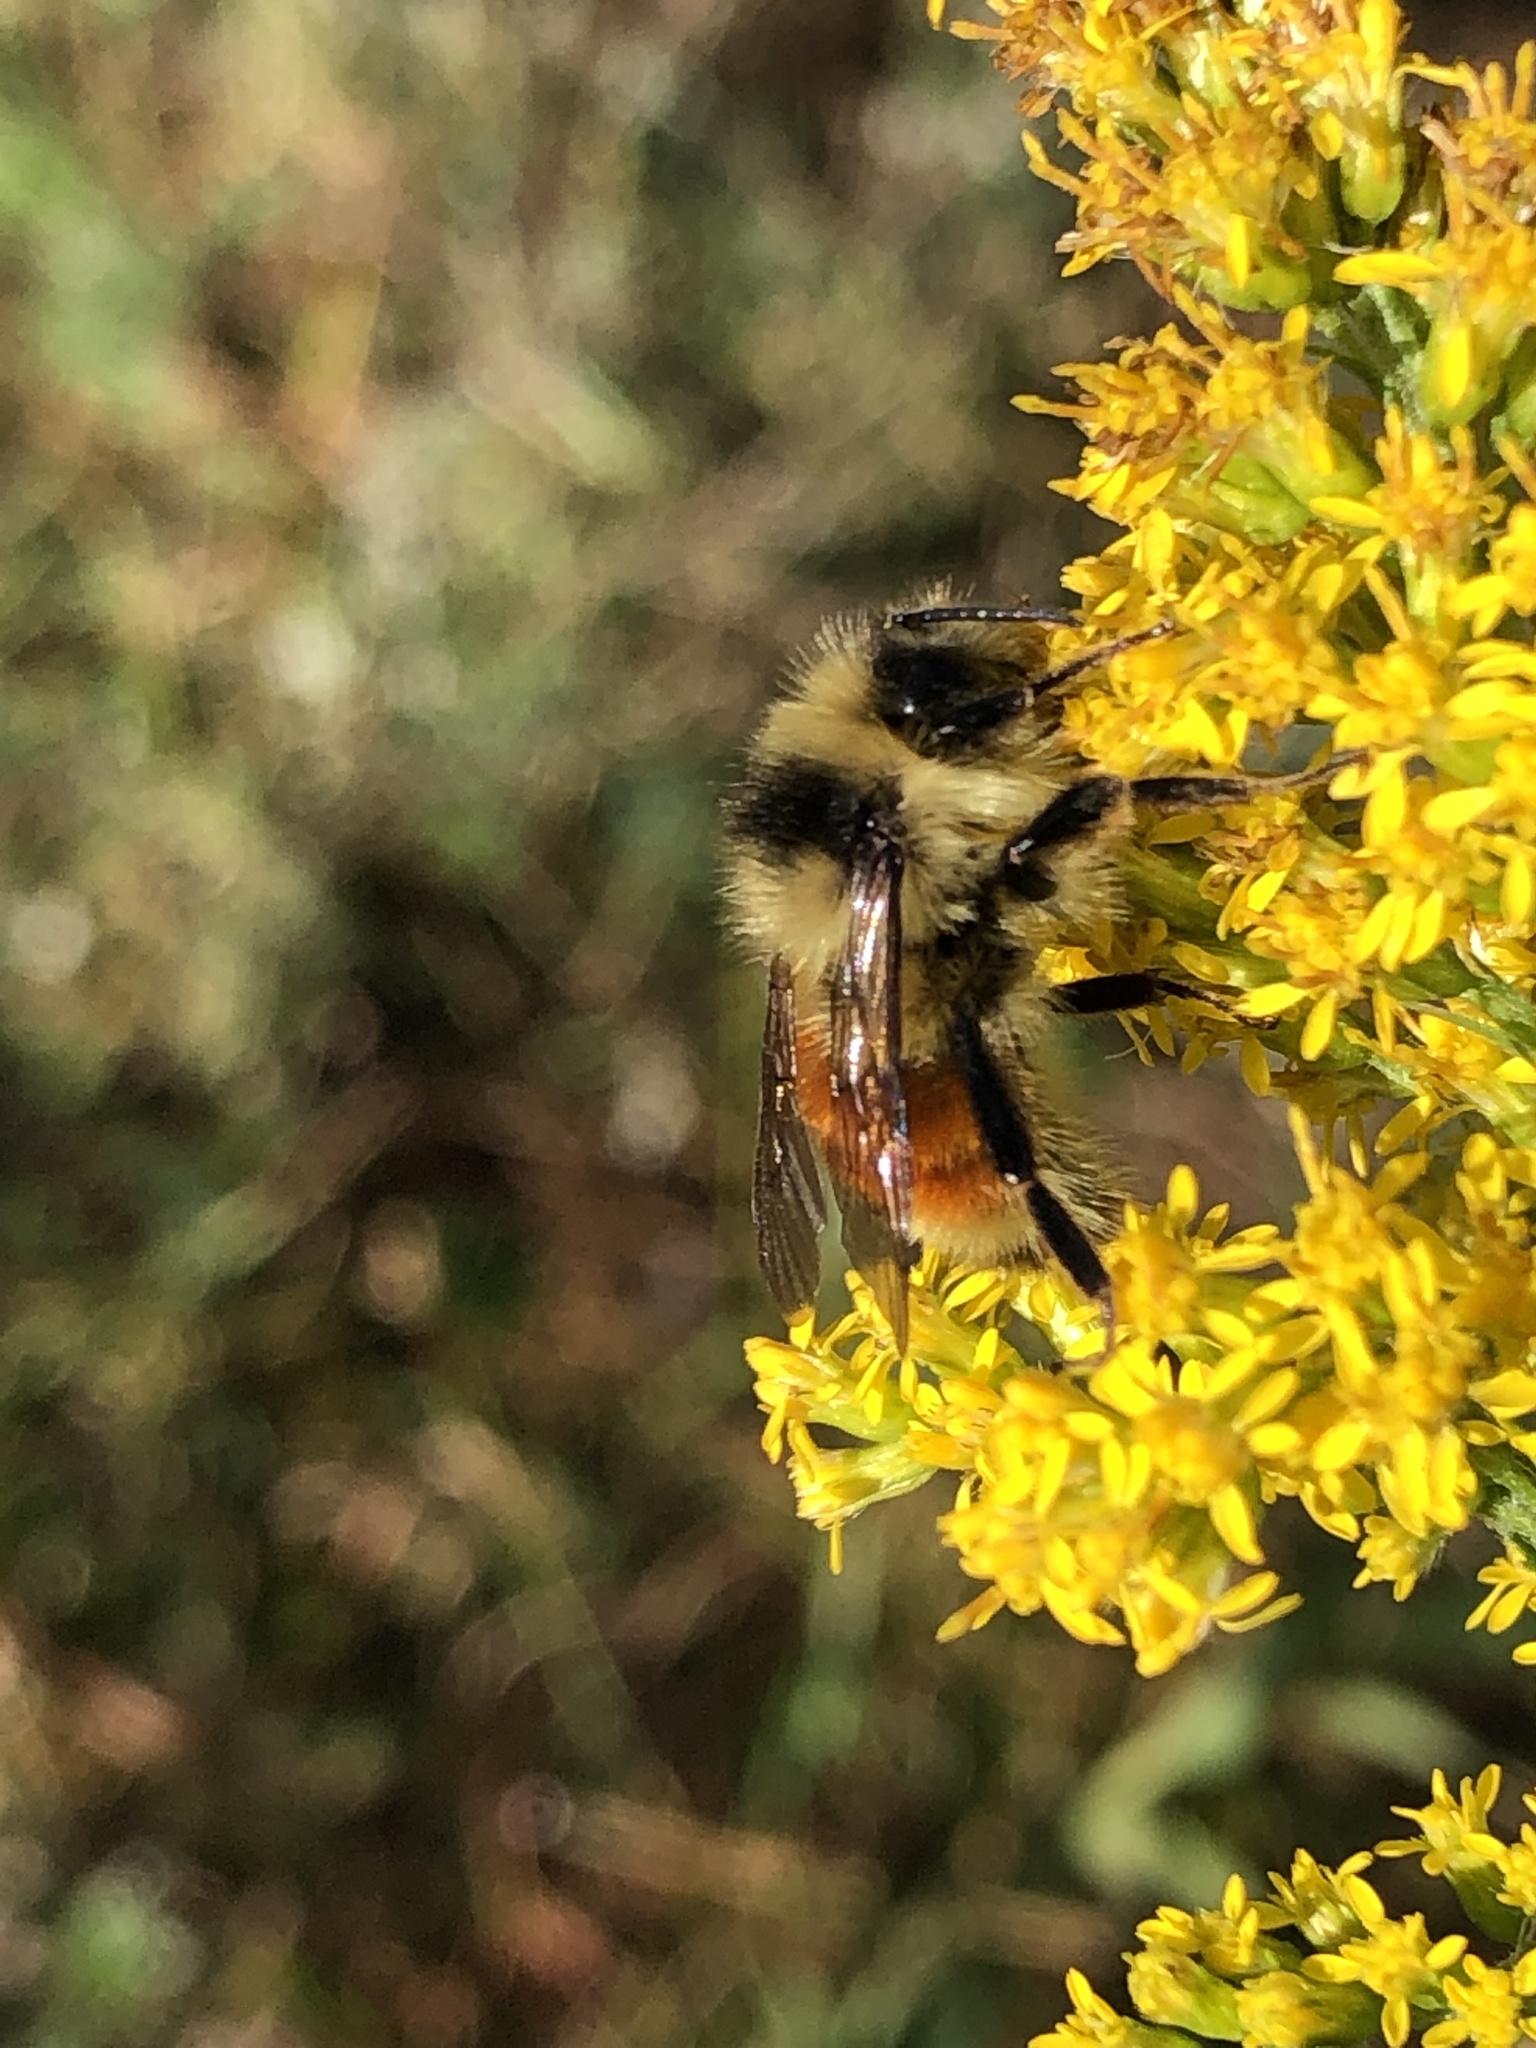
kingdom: Animalia
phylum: Arthropoda
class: Insecta
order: Hymenoptera
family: Apidae
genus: Bombus
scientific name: Bombus ternarius
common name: Tri-colored bumble bee
